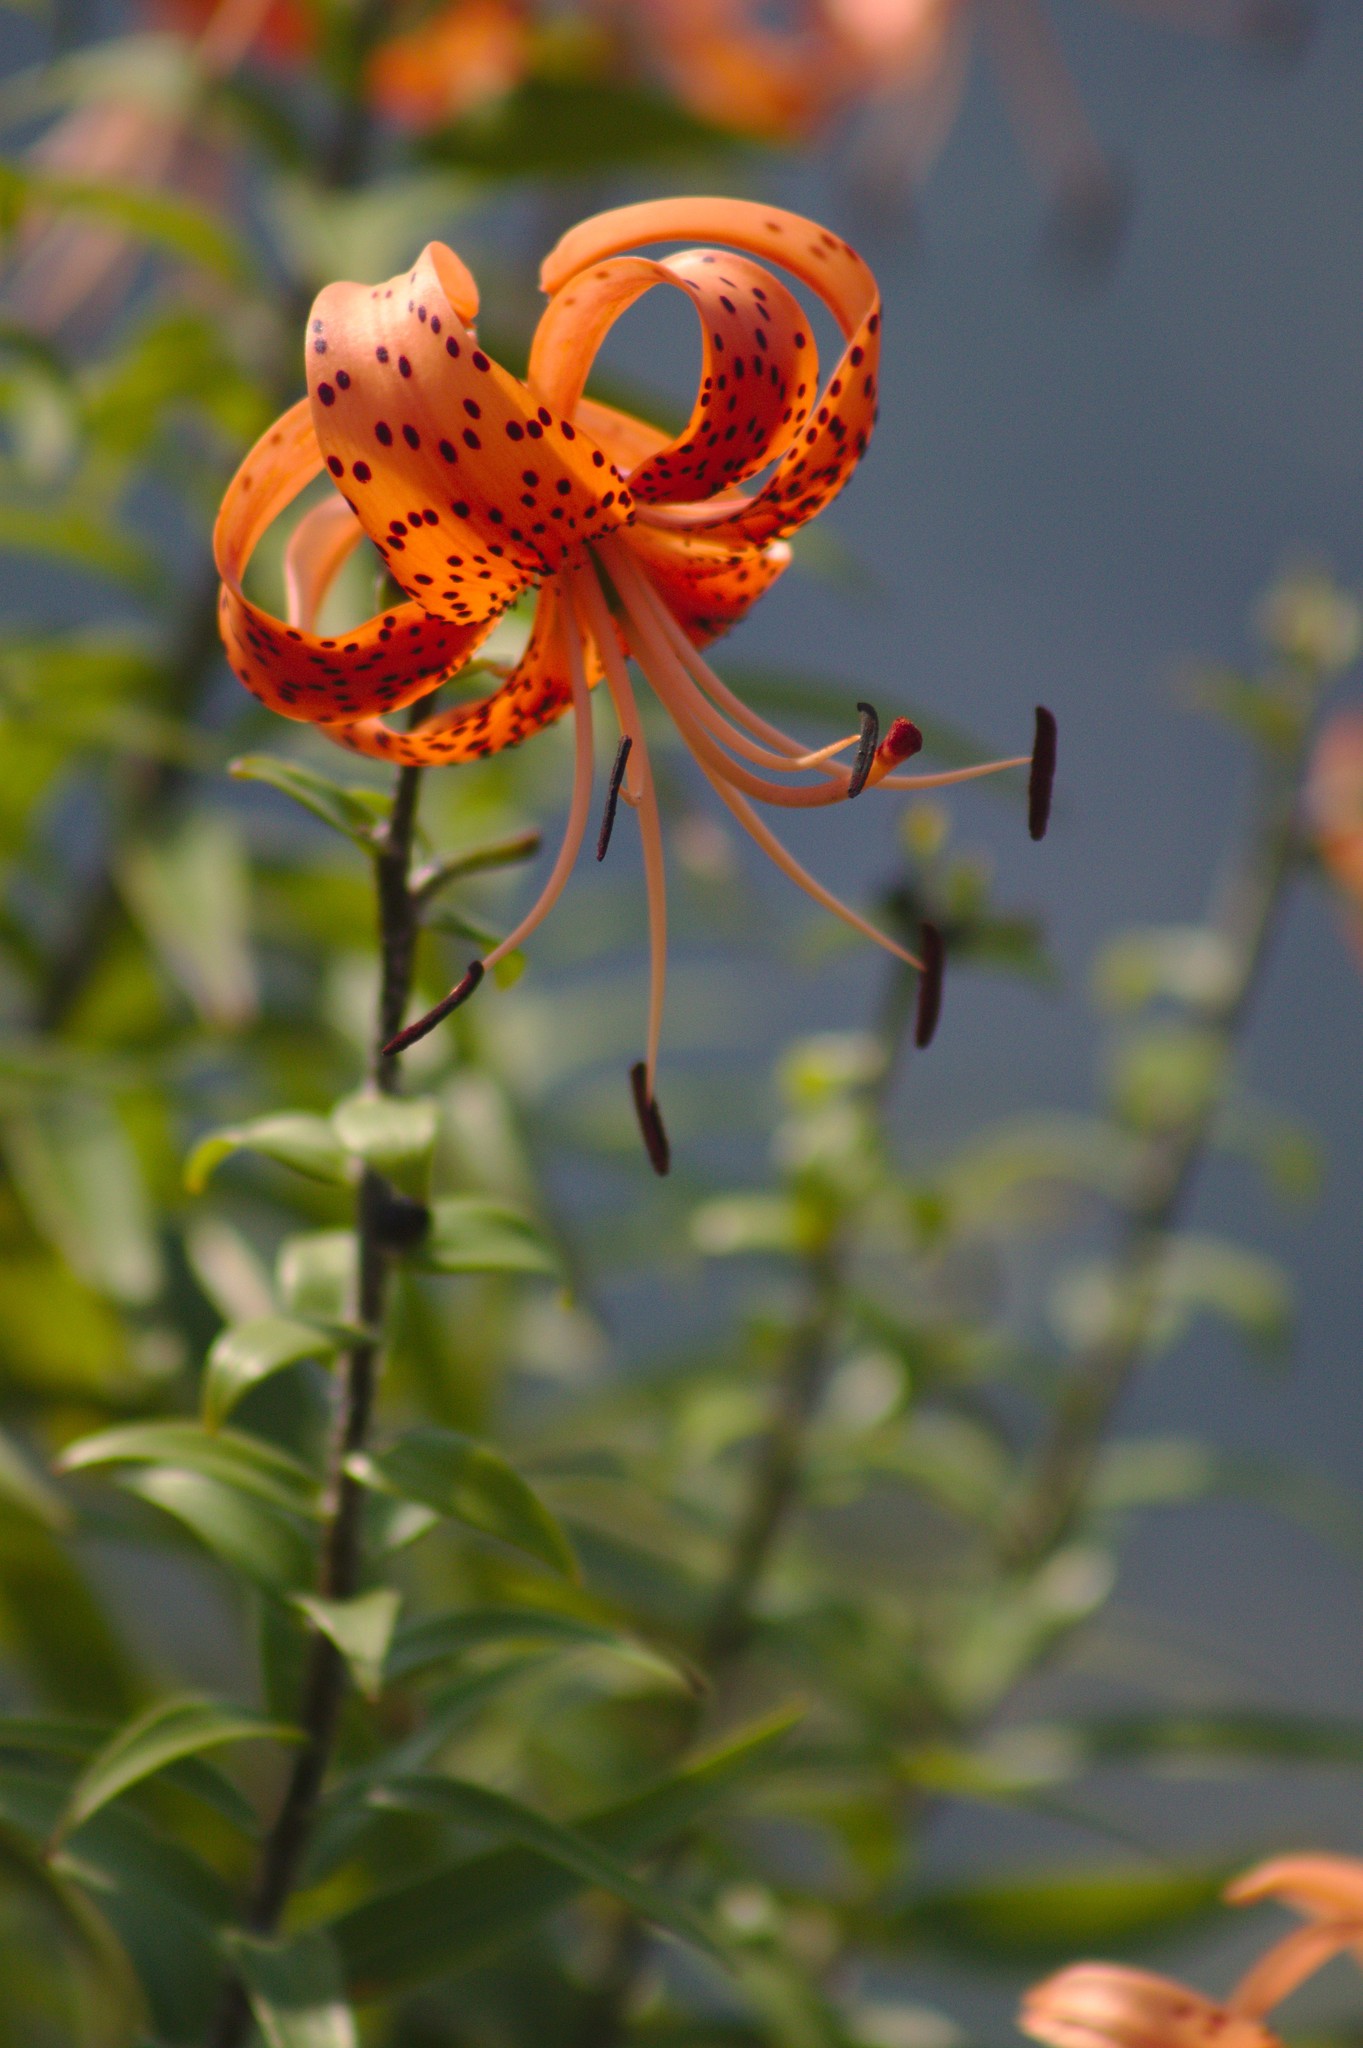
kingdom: Plantae
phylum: Tracheophyta
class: Liliopsida
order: Liliales
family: Liliaceae
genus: Lilium
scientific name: Lilium lancifolium
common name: Tiger lily
